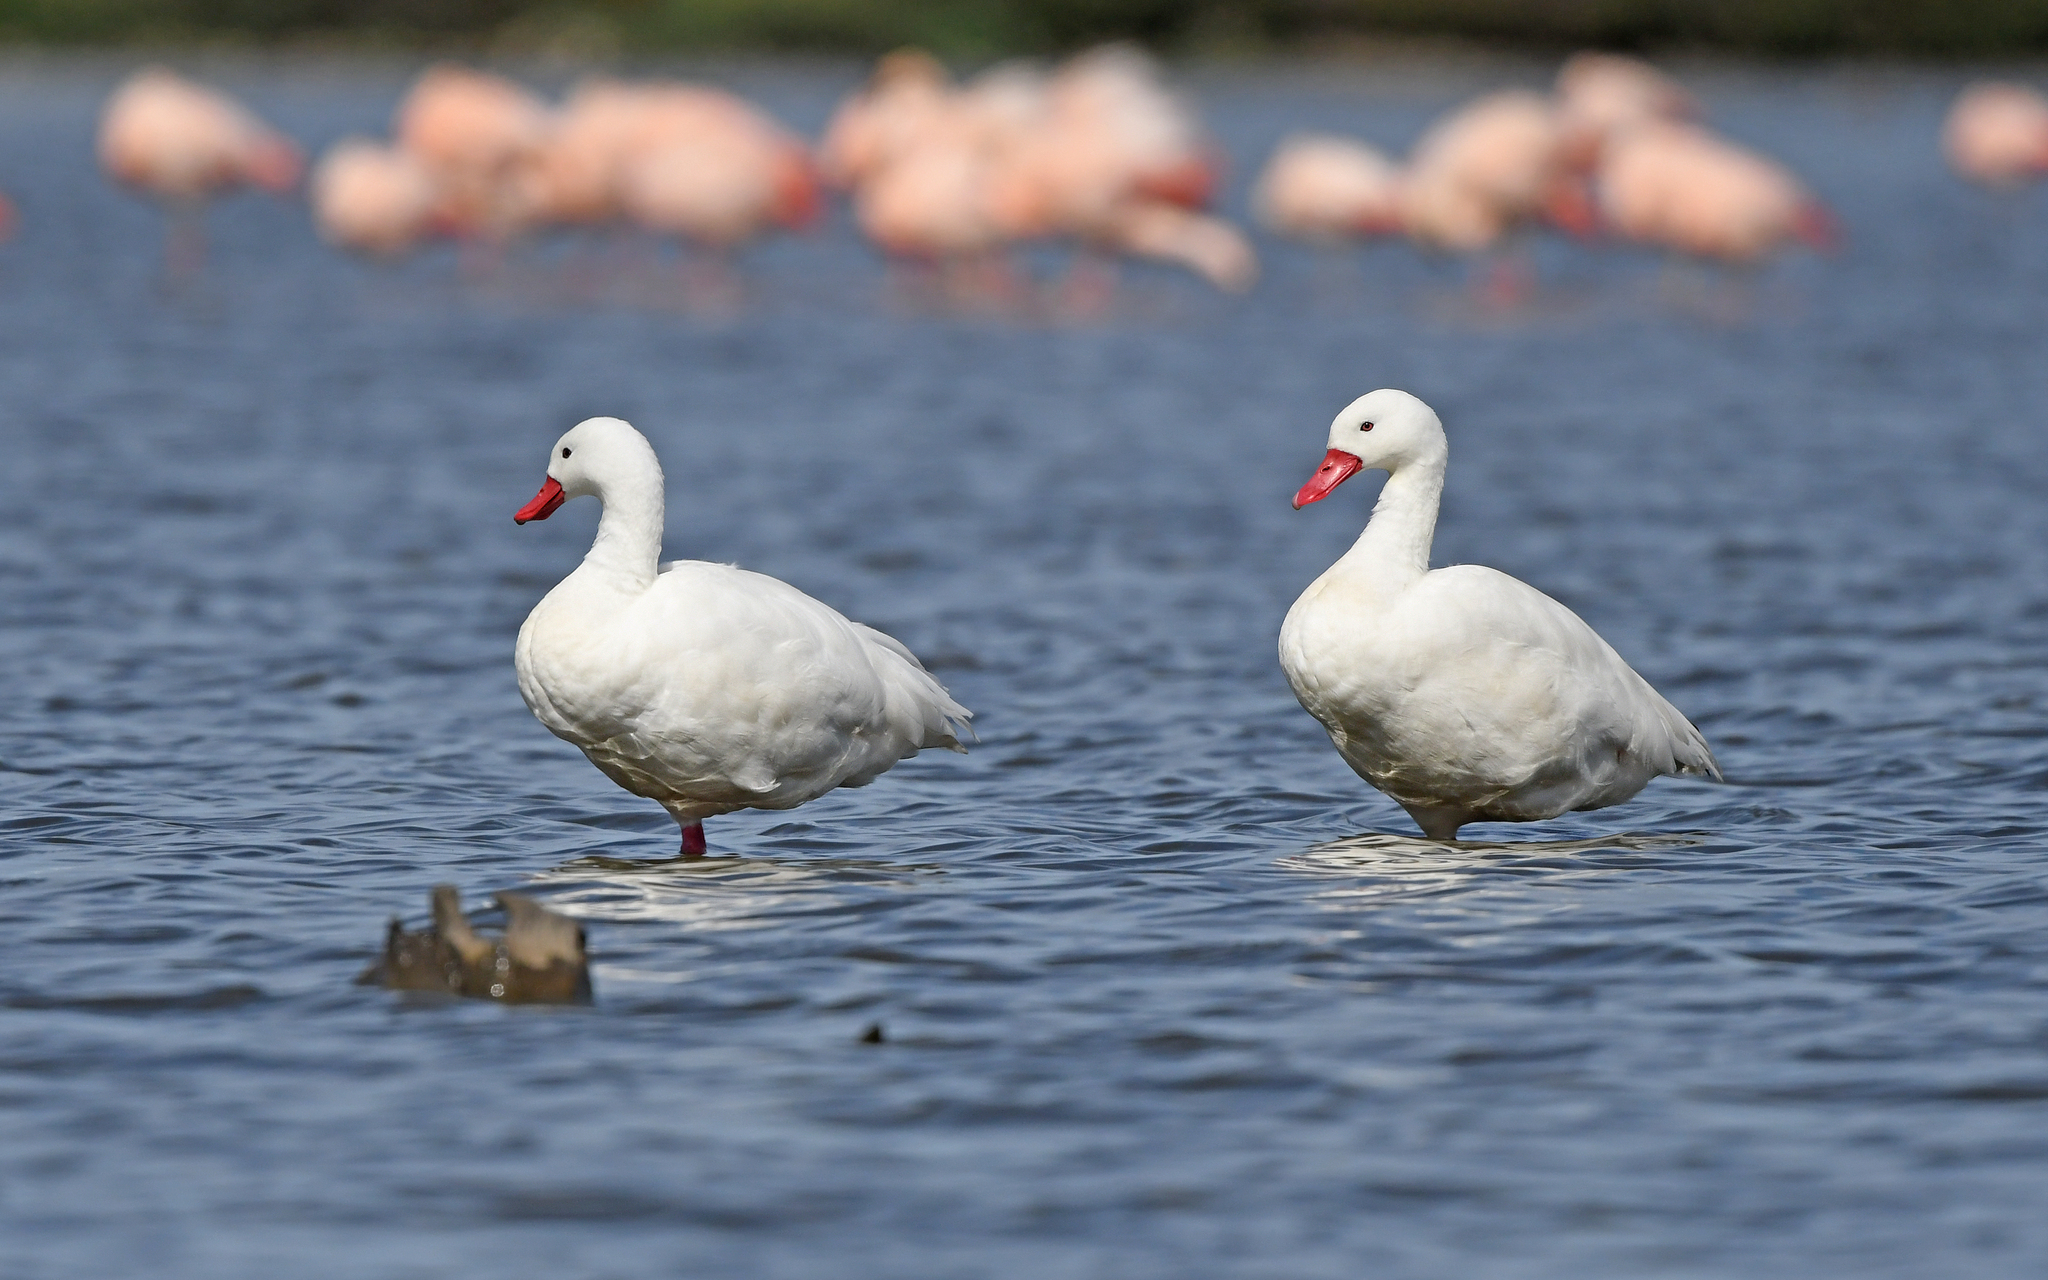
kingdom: Animalia
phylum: Chordata
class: Aves
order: Anseriformes
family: Anatidae
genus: Coscoroba
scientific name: Coscoroba coscoroba
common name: Coscoroba swan
